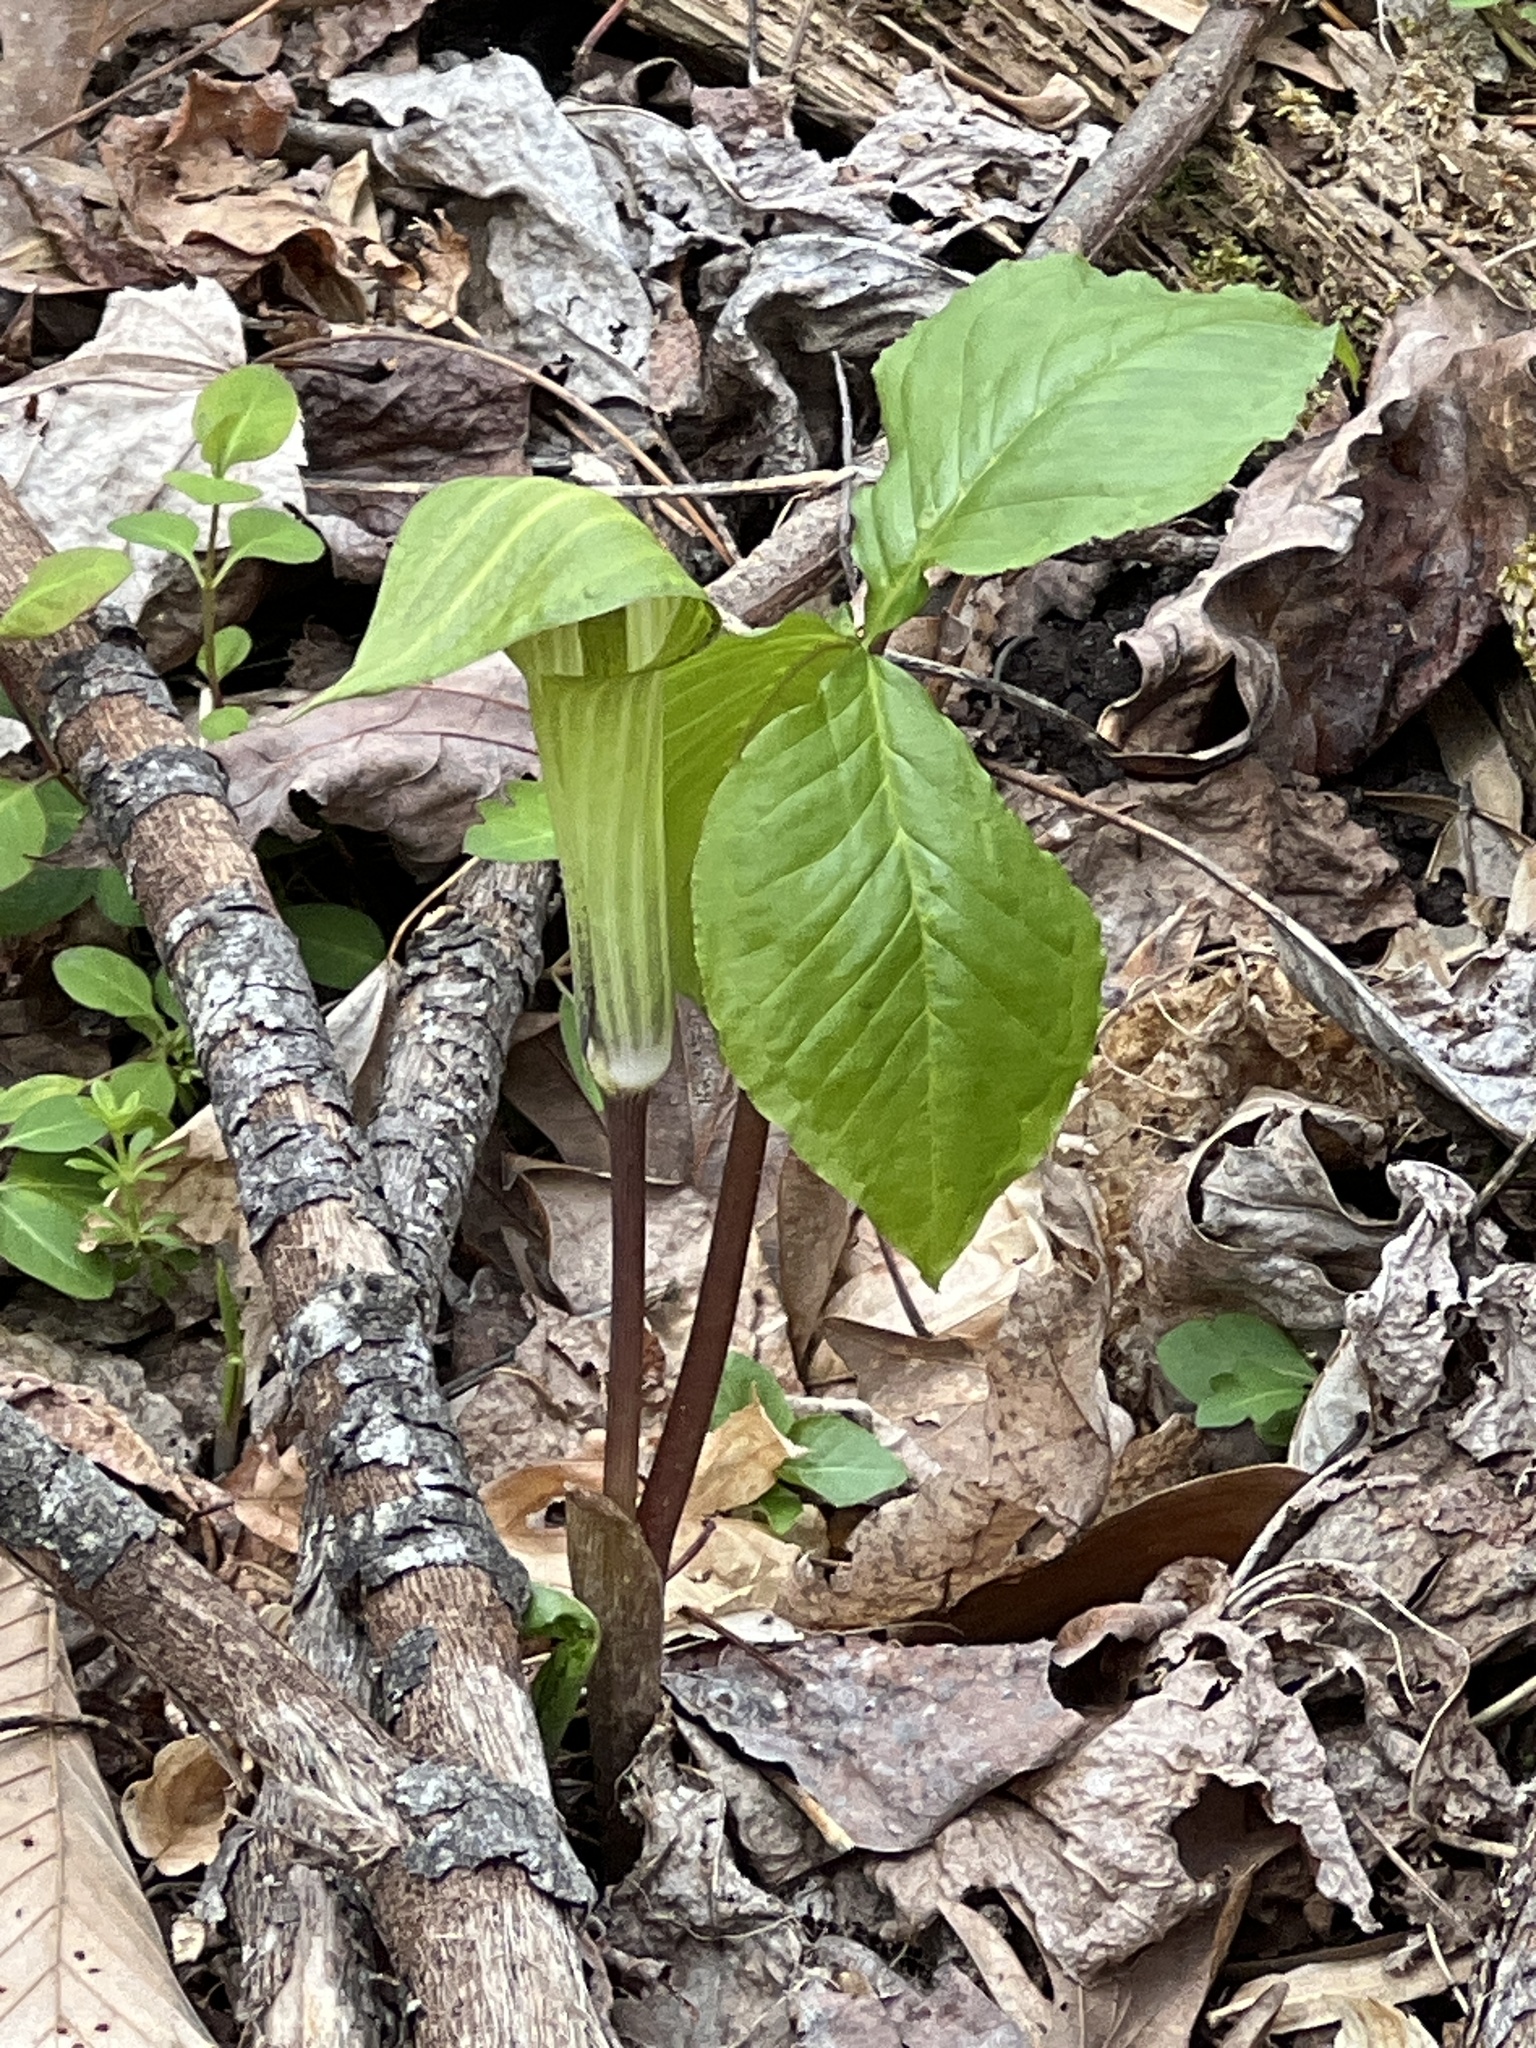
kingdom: Plantae
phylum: Tracheophyta
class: Liliopsida
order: Alismatales
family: Araceae
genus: Arisaema
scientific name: Arisaema triphyllum
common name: Jack-in-the-pulpit
